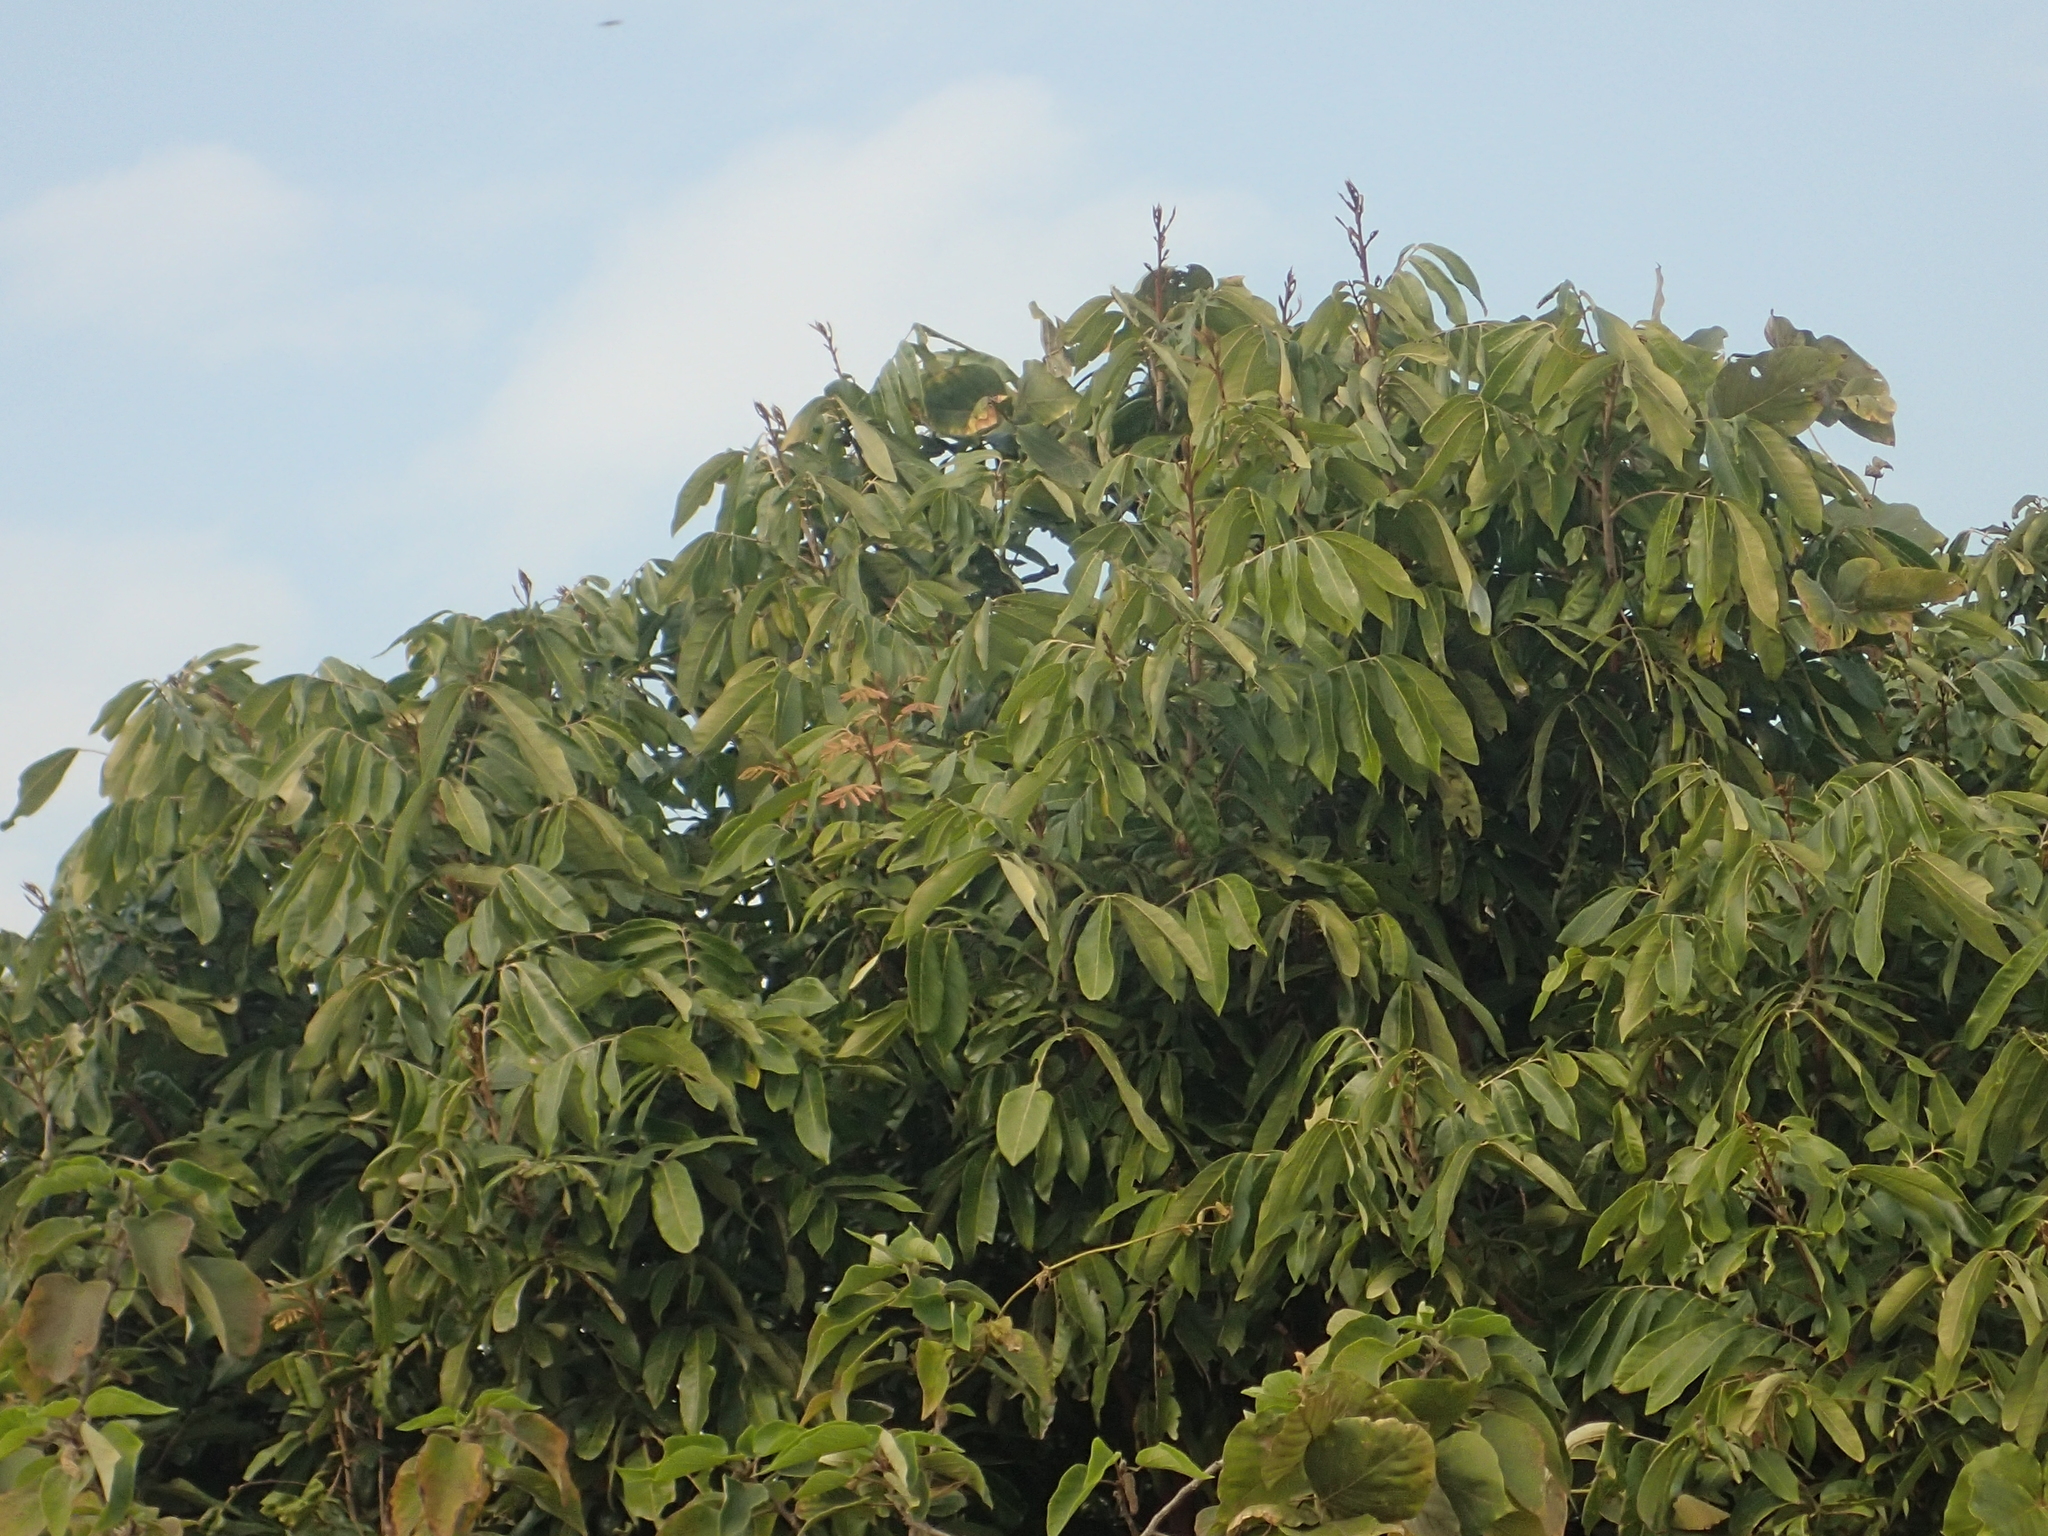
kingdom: Plantae
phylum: Tracheophyta
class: Magnoliopsida
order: Sapindales
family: Sapindaceae
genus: Dimocarpus
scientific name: Dimocarpus longan
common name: Longan
